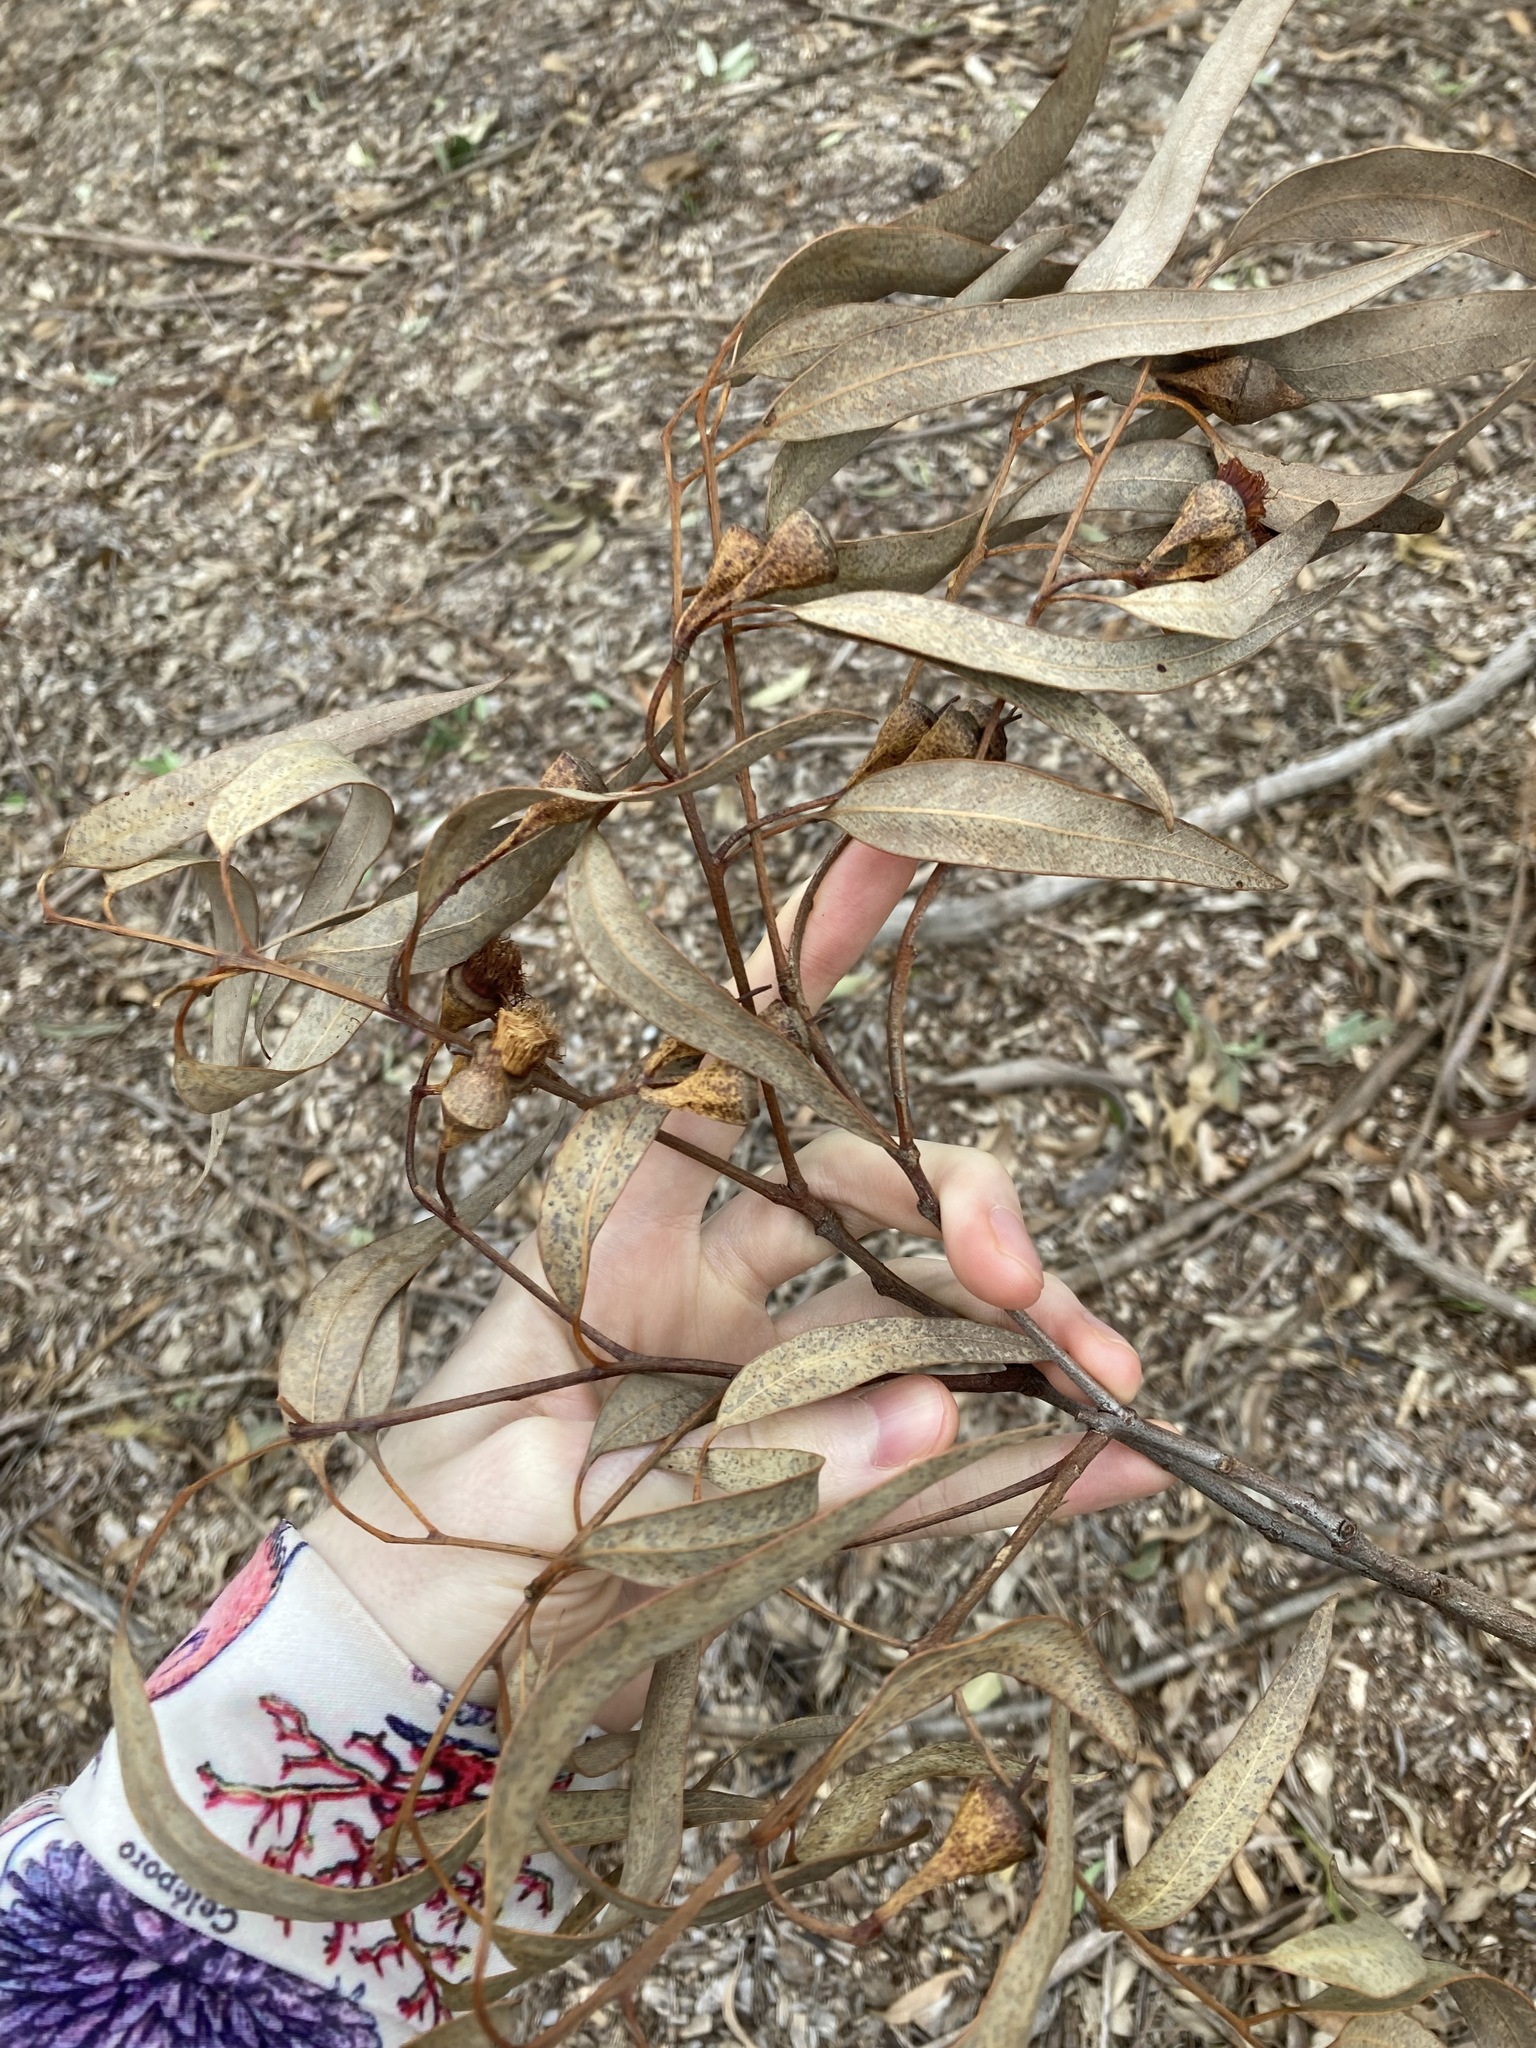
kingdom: Plantae
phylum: Tracheophyta
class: Magnoliopsida
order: Myrtales
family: Myrtaceae
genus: Eucalyptus
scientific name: Eucalyptus longifolia
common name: Woollybutt
